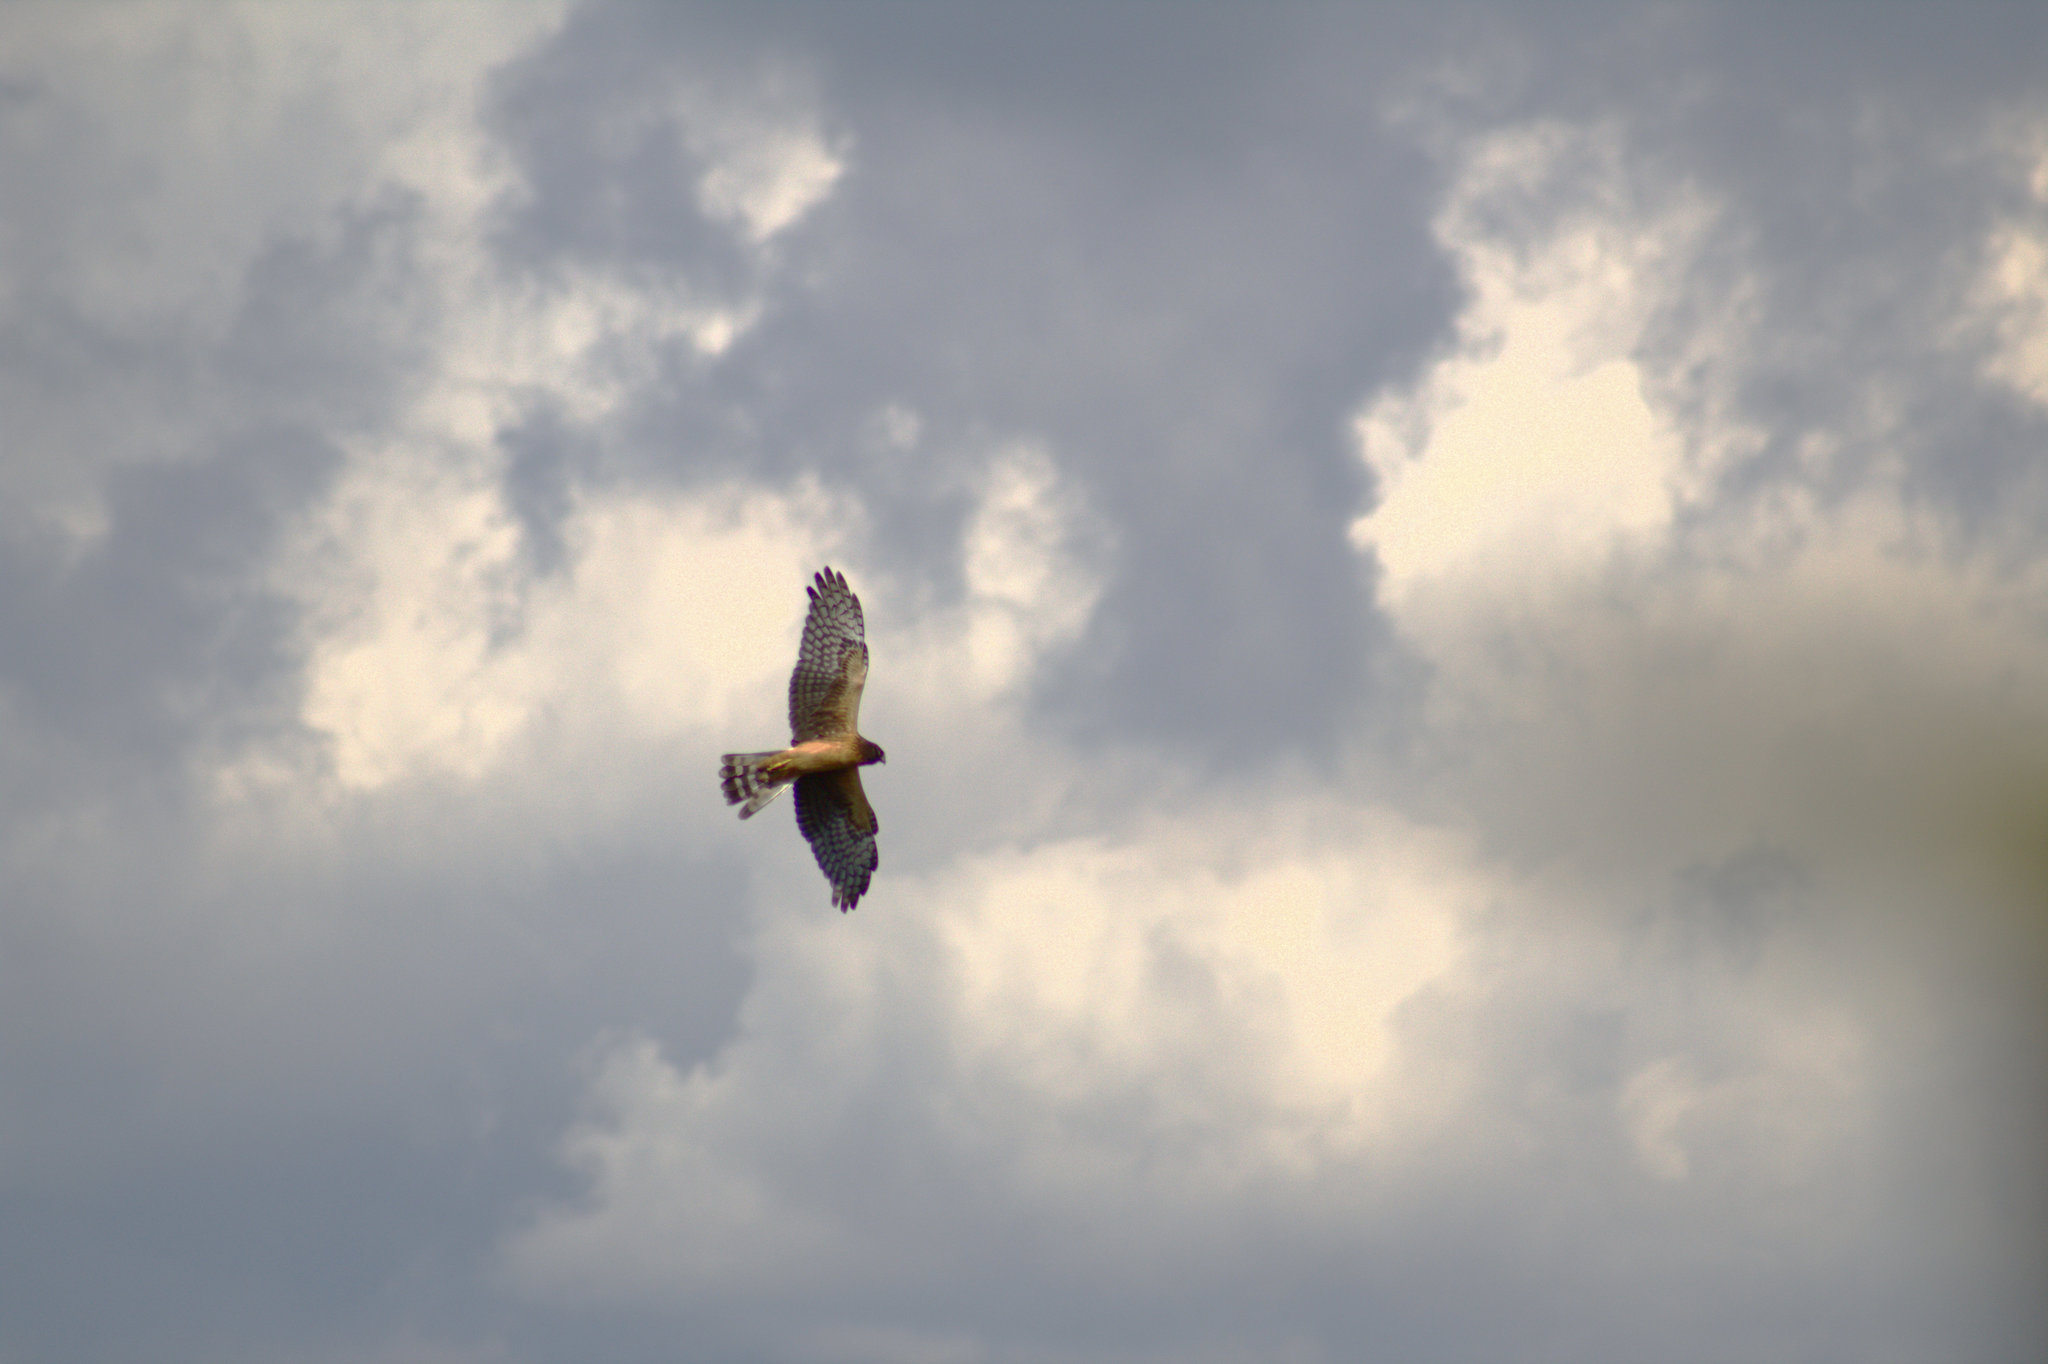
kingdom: Animalia
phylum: Chordata
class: Aves
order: Accipitriformes
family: Accipitridae
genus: Circus
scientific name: Circus cyaneus
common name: Hen harrier
